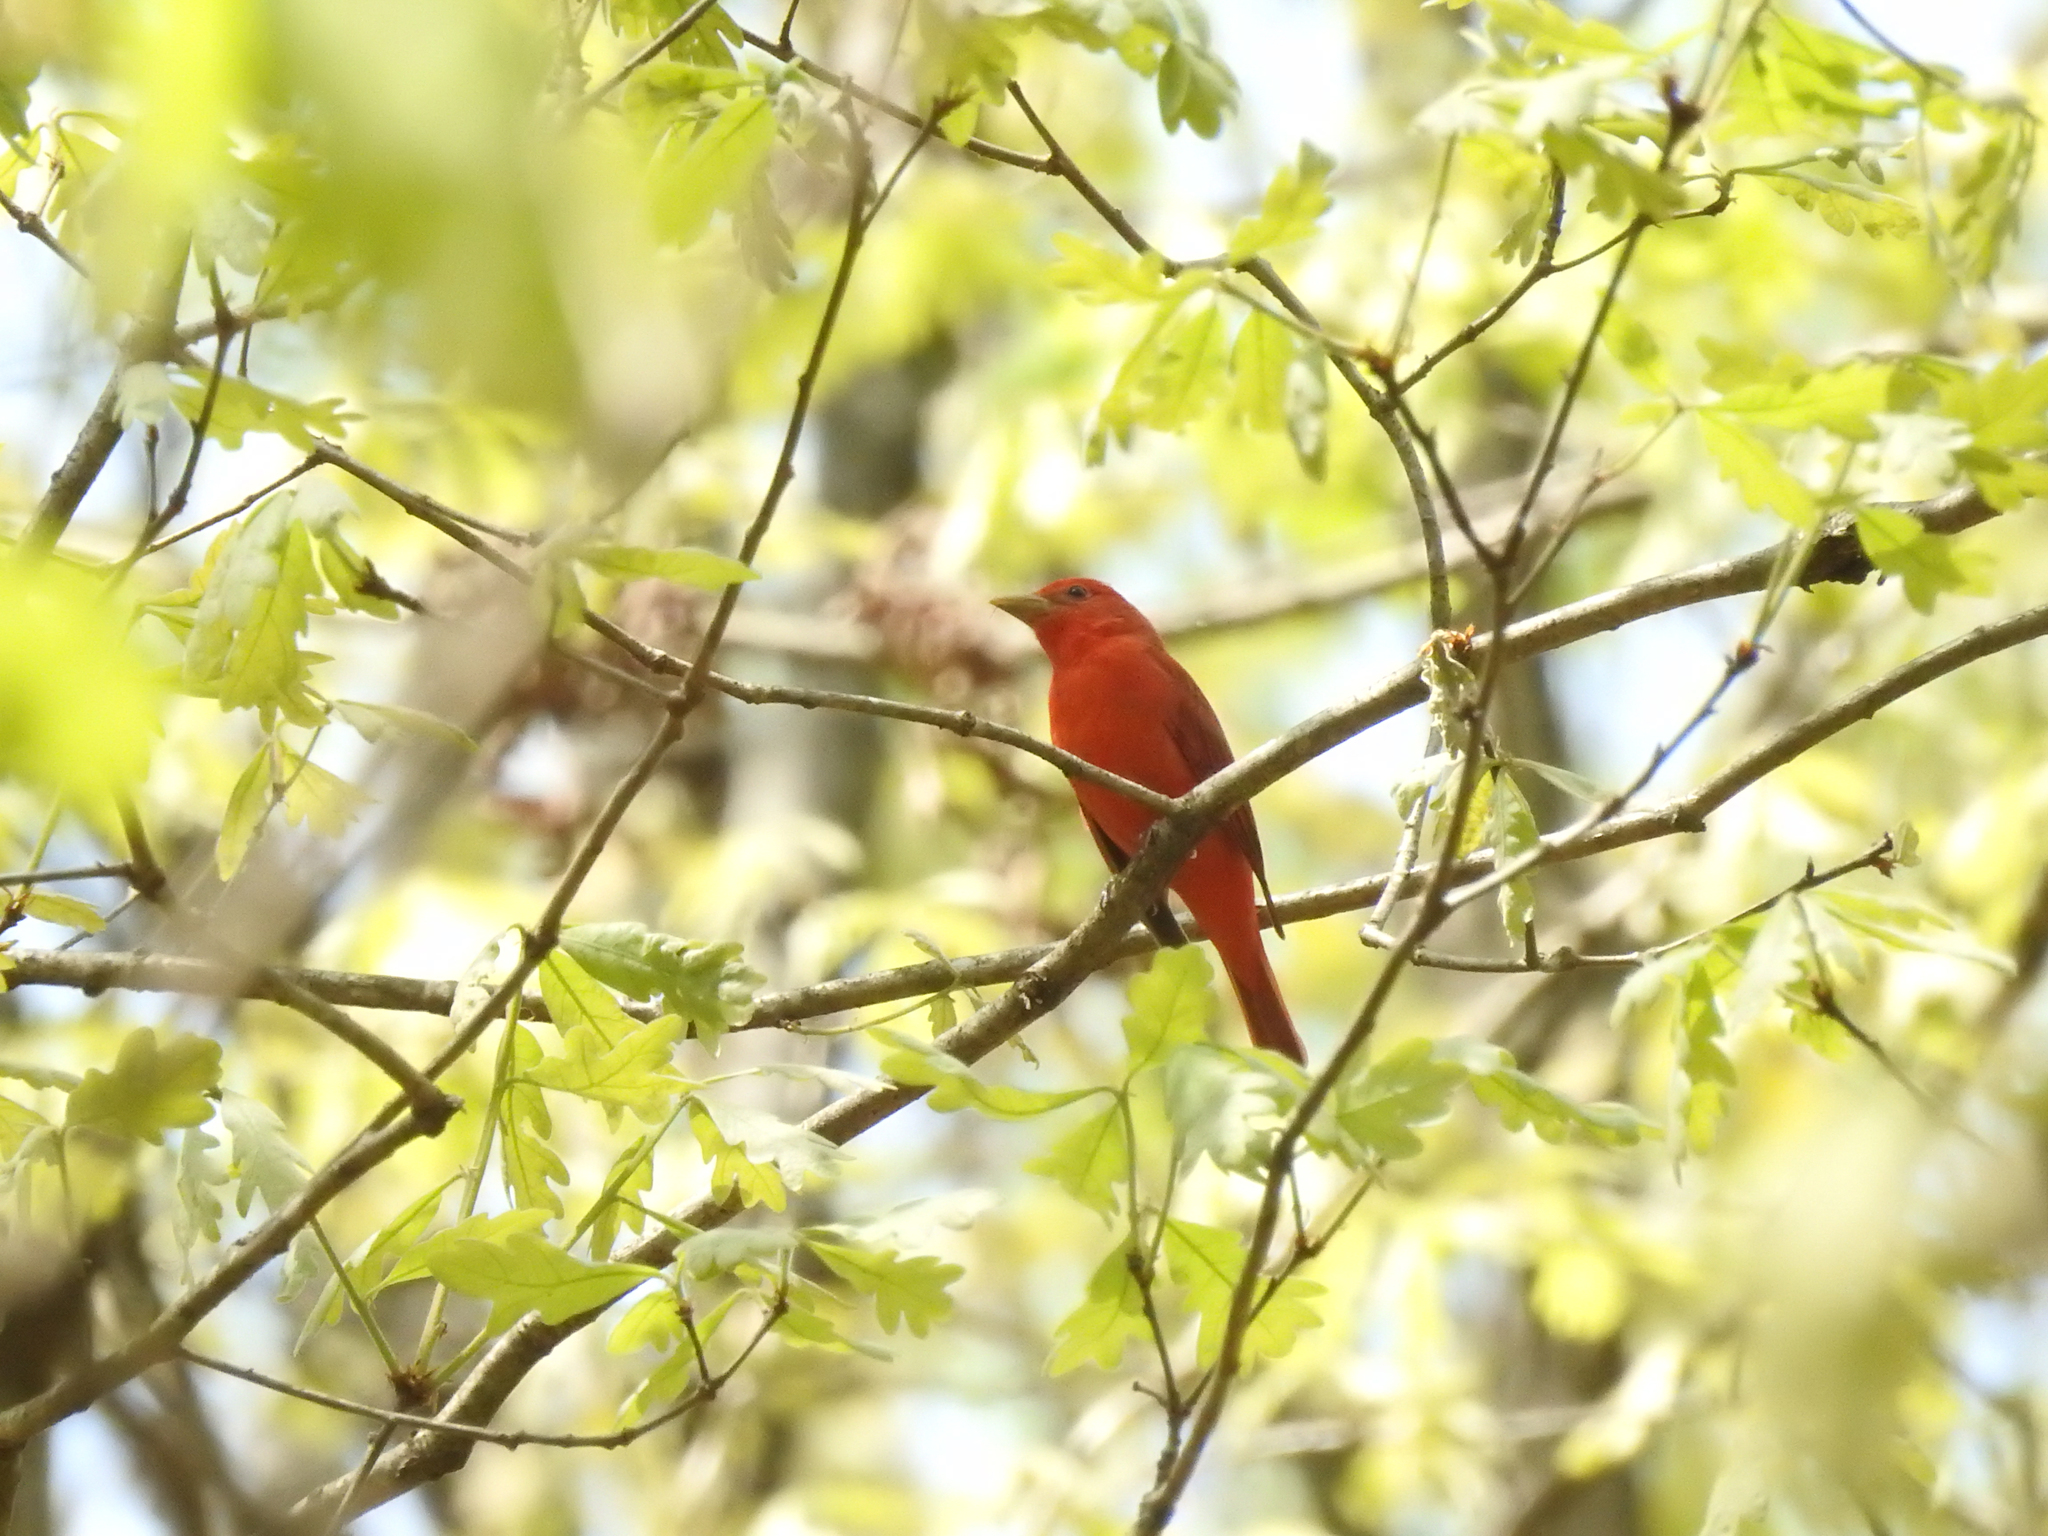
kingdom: Animalia
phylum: Chordata
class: Aves
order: Passeriformes
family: Cardinalidae
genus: Piranga
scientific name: Piranga rubra
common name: Summer tanager
